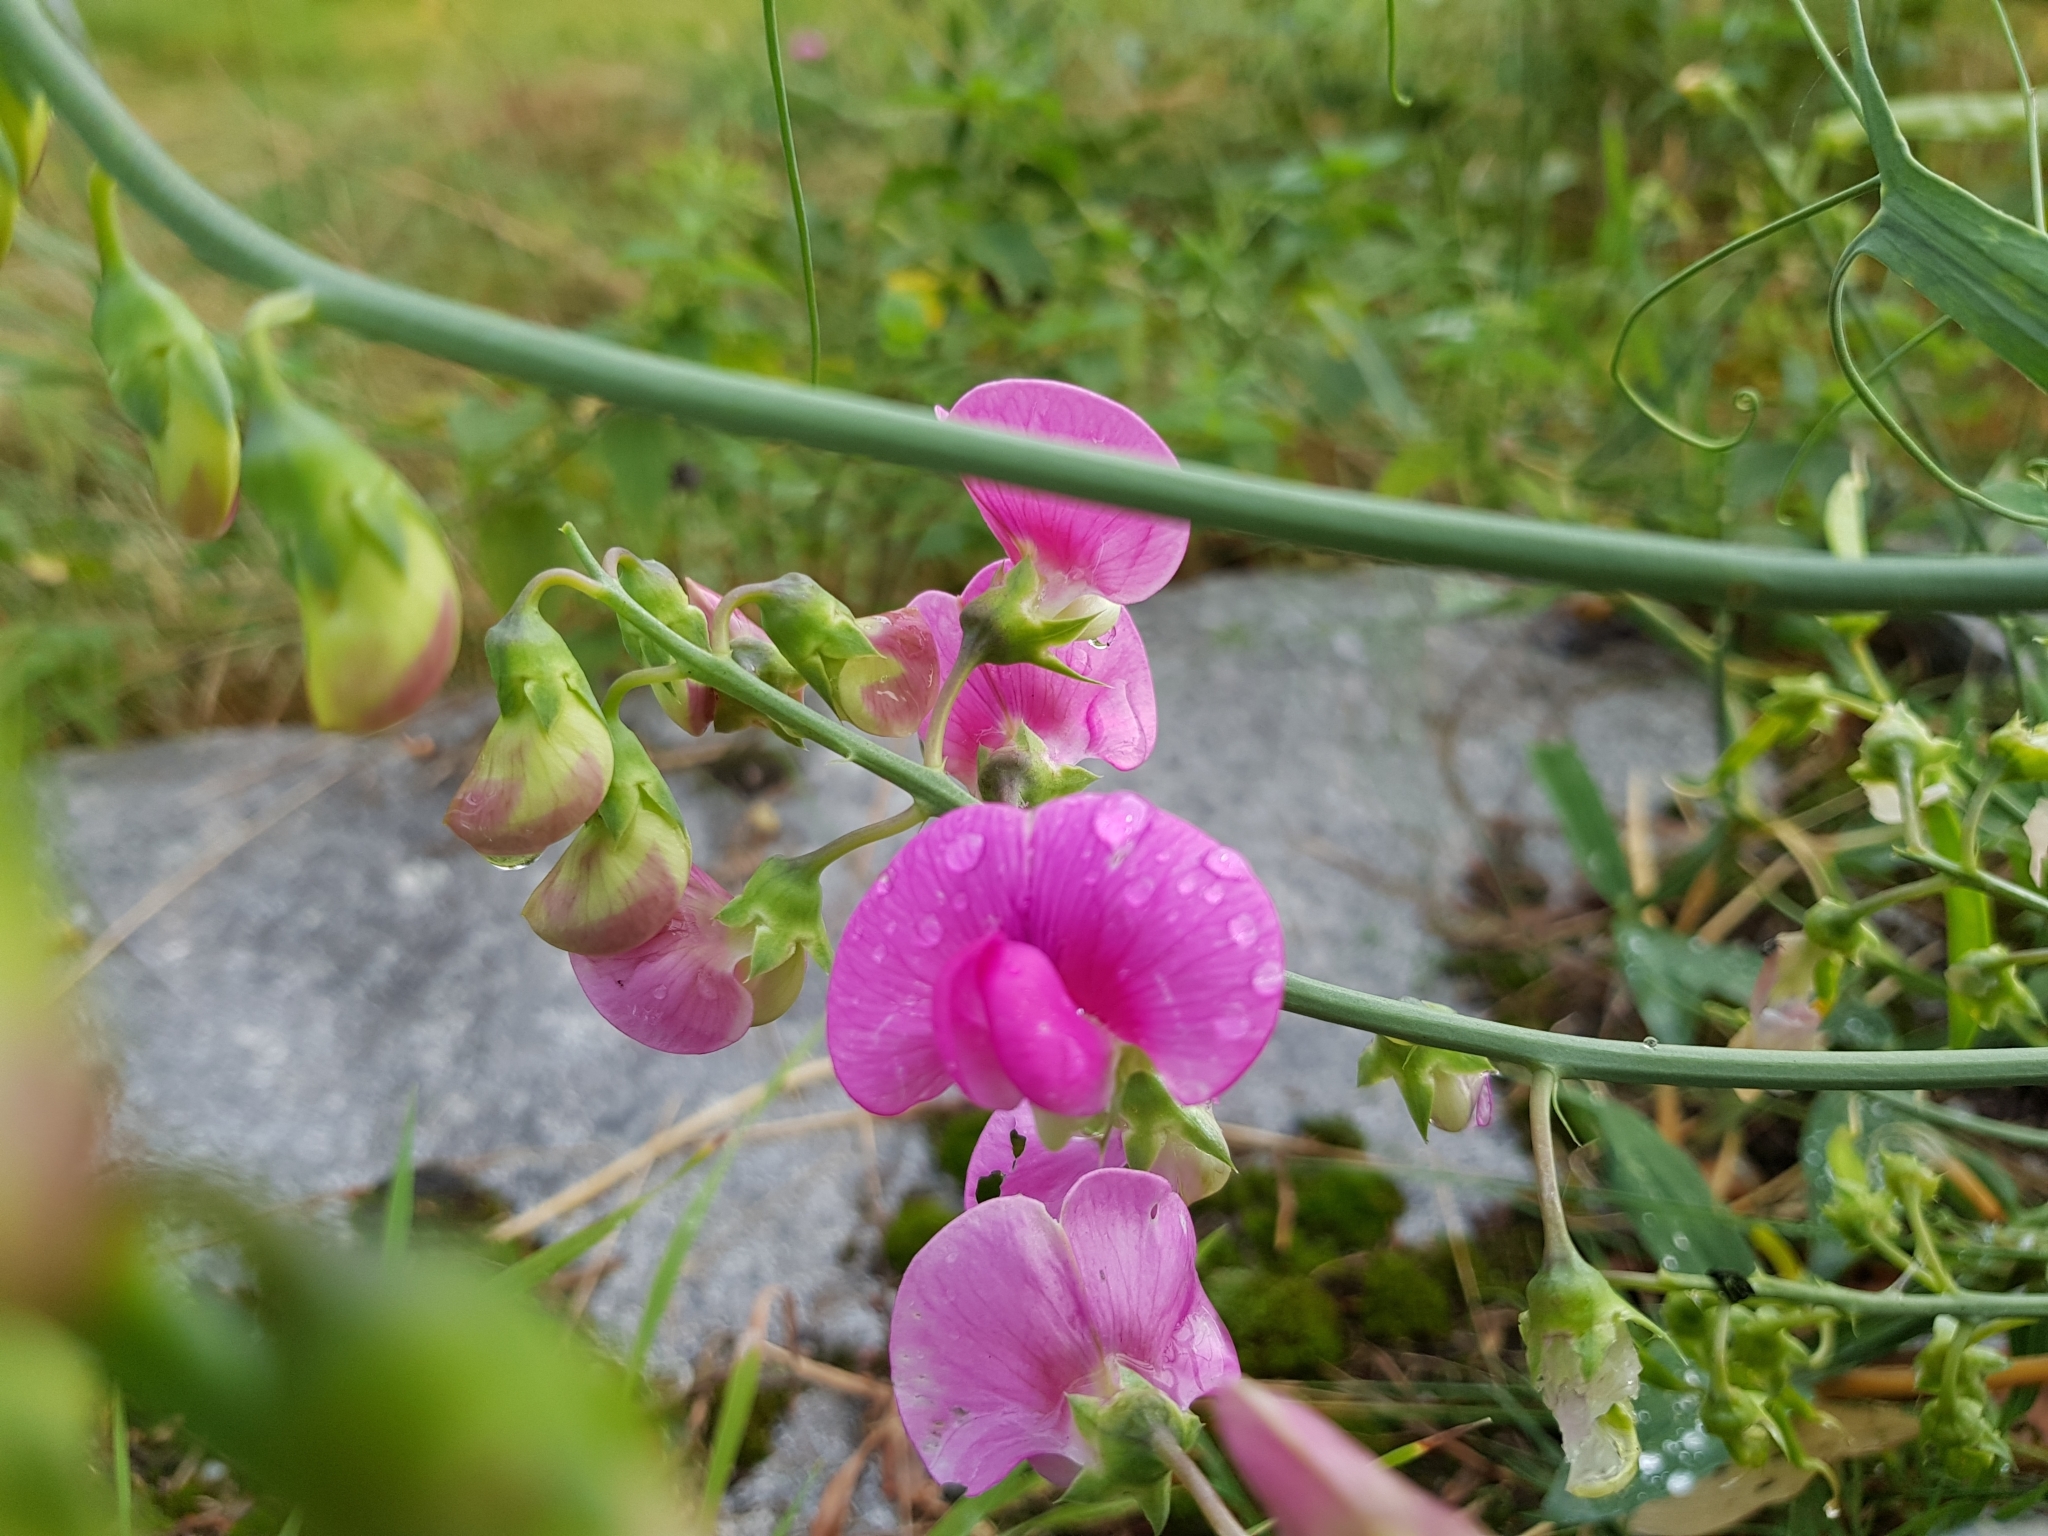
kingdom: Plantae
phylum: Tracheophyta
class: Magnoliopsida
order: Fabales
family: Fabaceae
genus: Lathyrus
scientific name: Lathyrus latifolius
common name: Perennial pea
